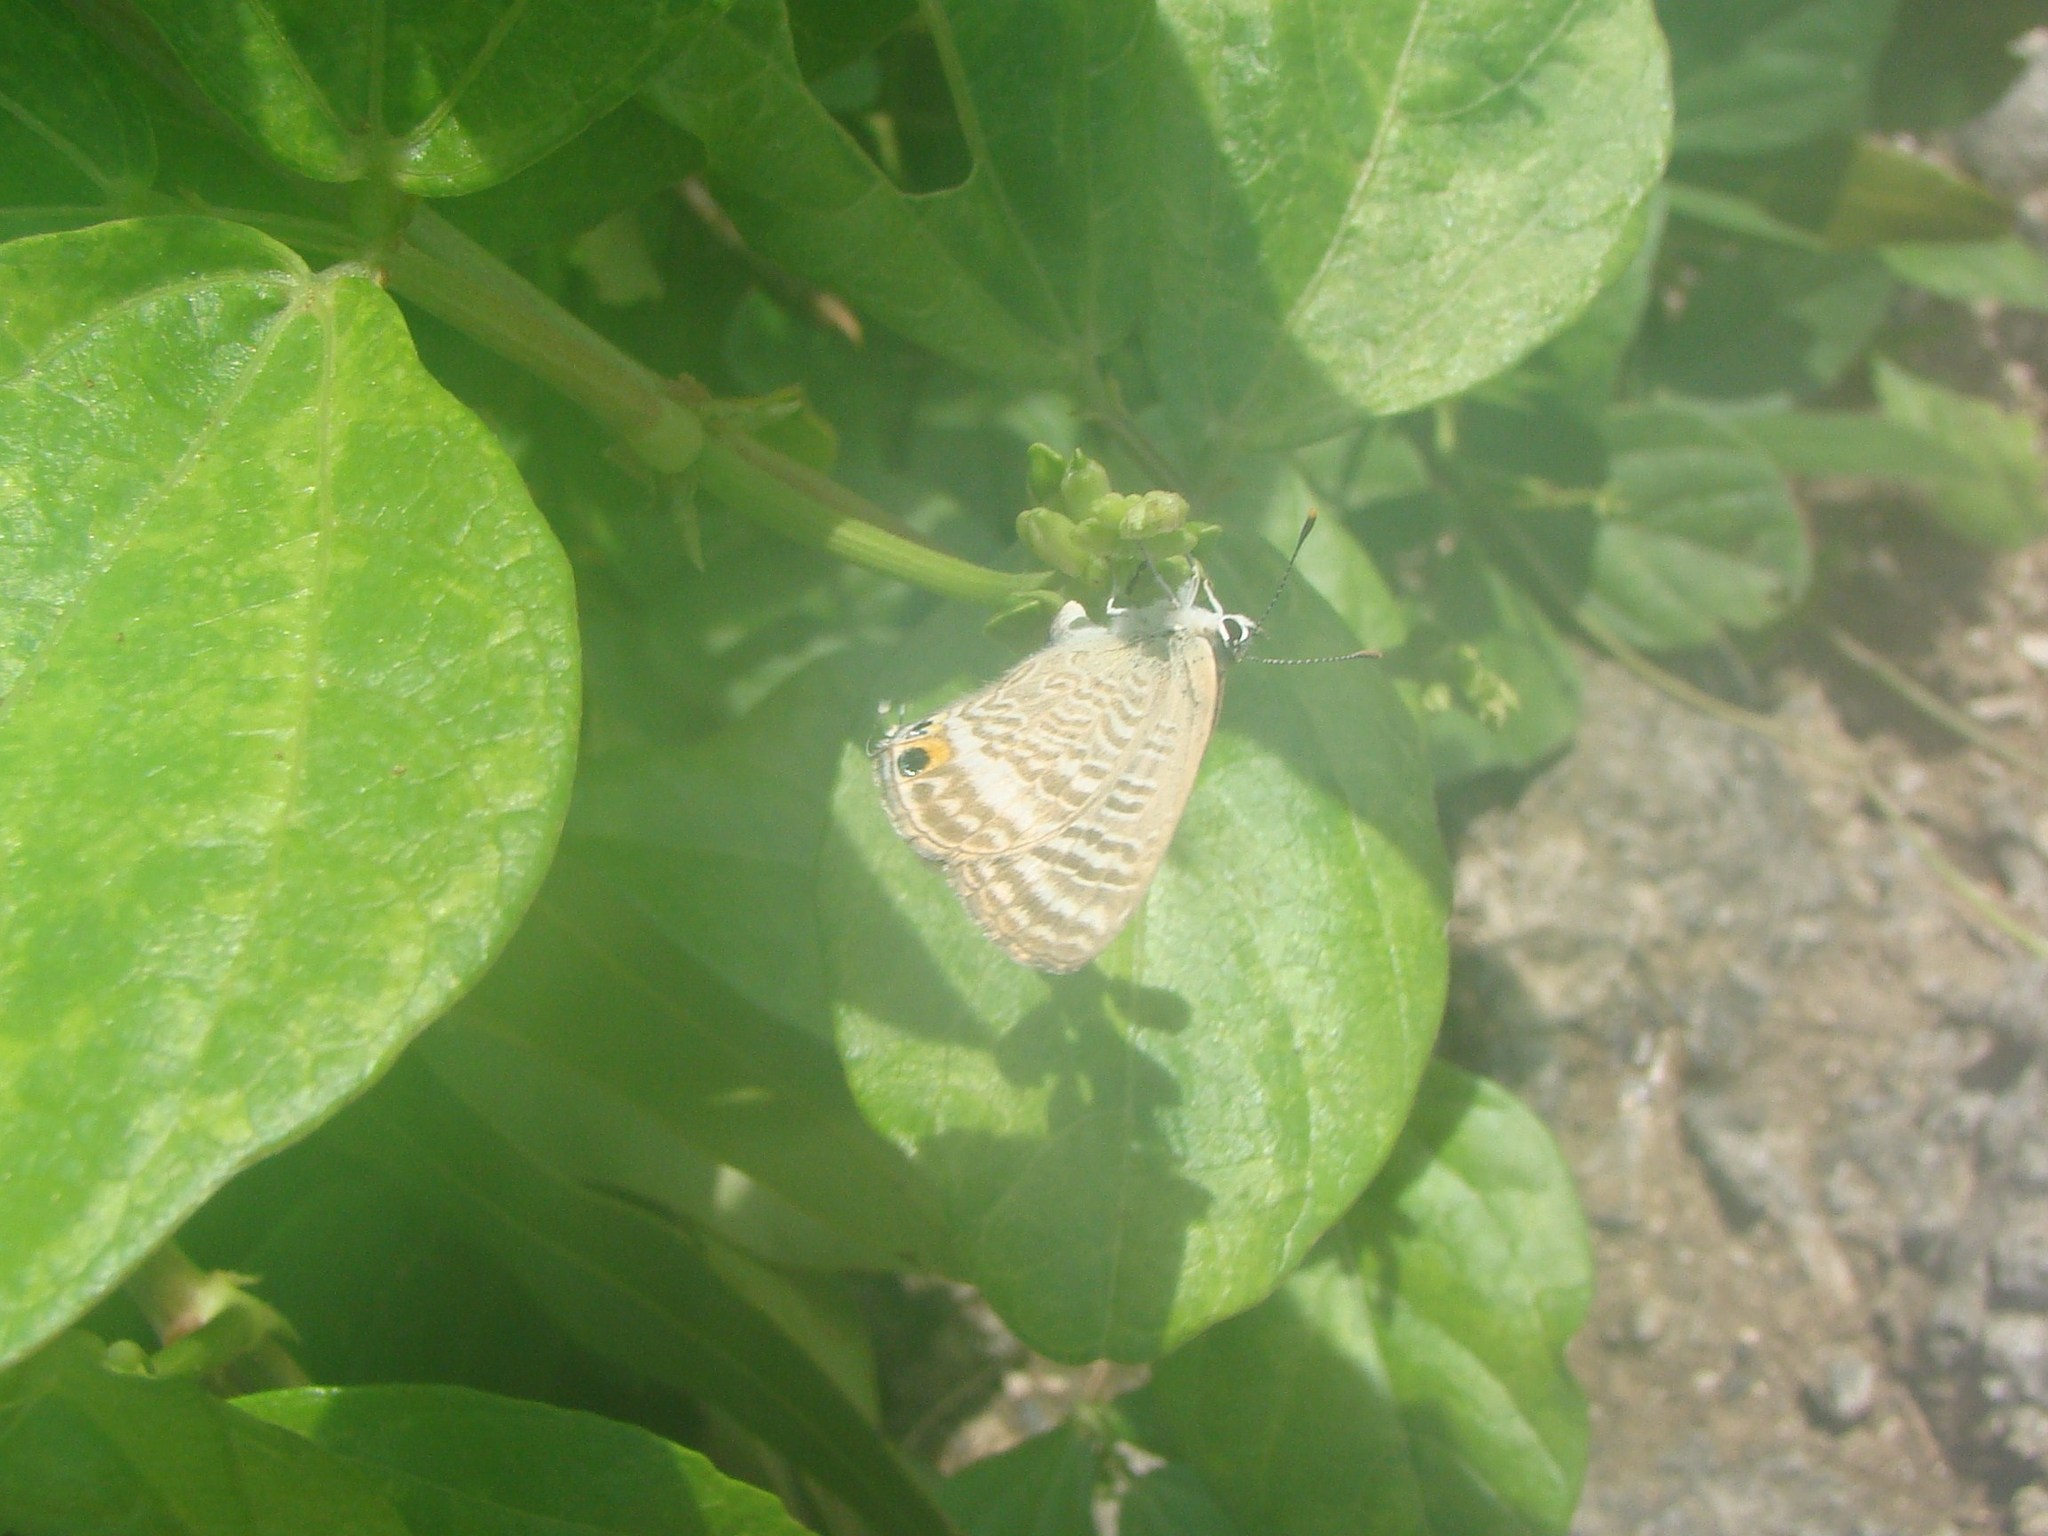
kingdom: Animalia
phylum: Arthropoda
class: Insecta
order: Lepidoptera
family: Lycaenidae
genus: Lampides
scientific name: Lampides boeticus
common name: Long-tailed blue
